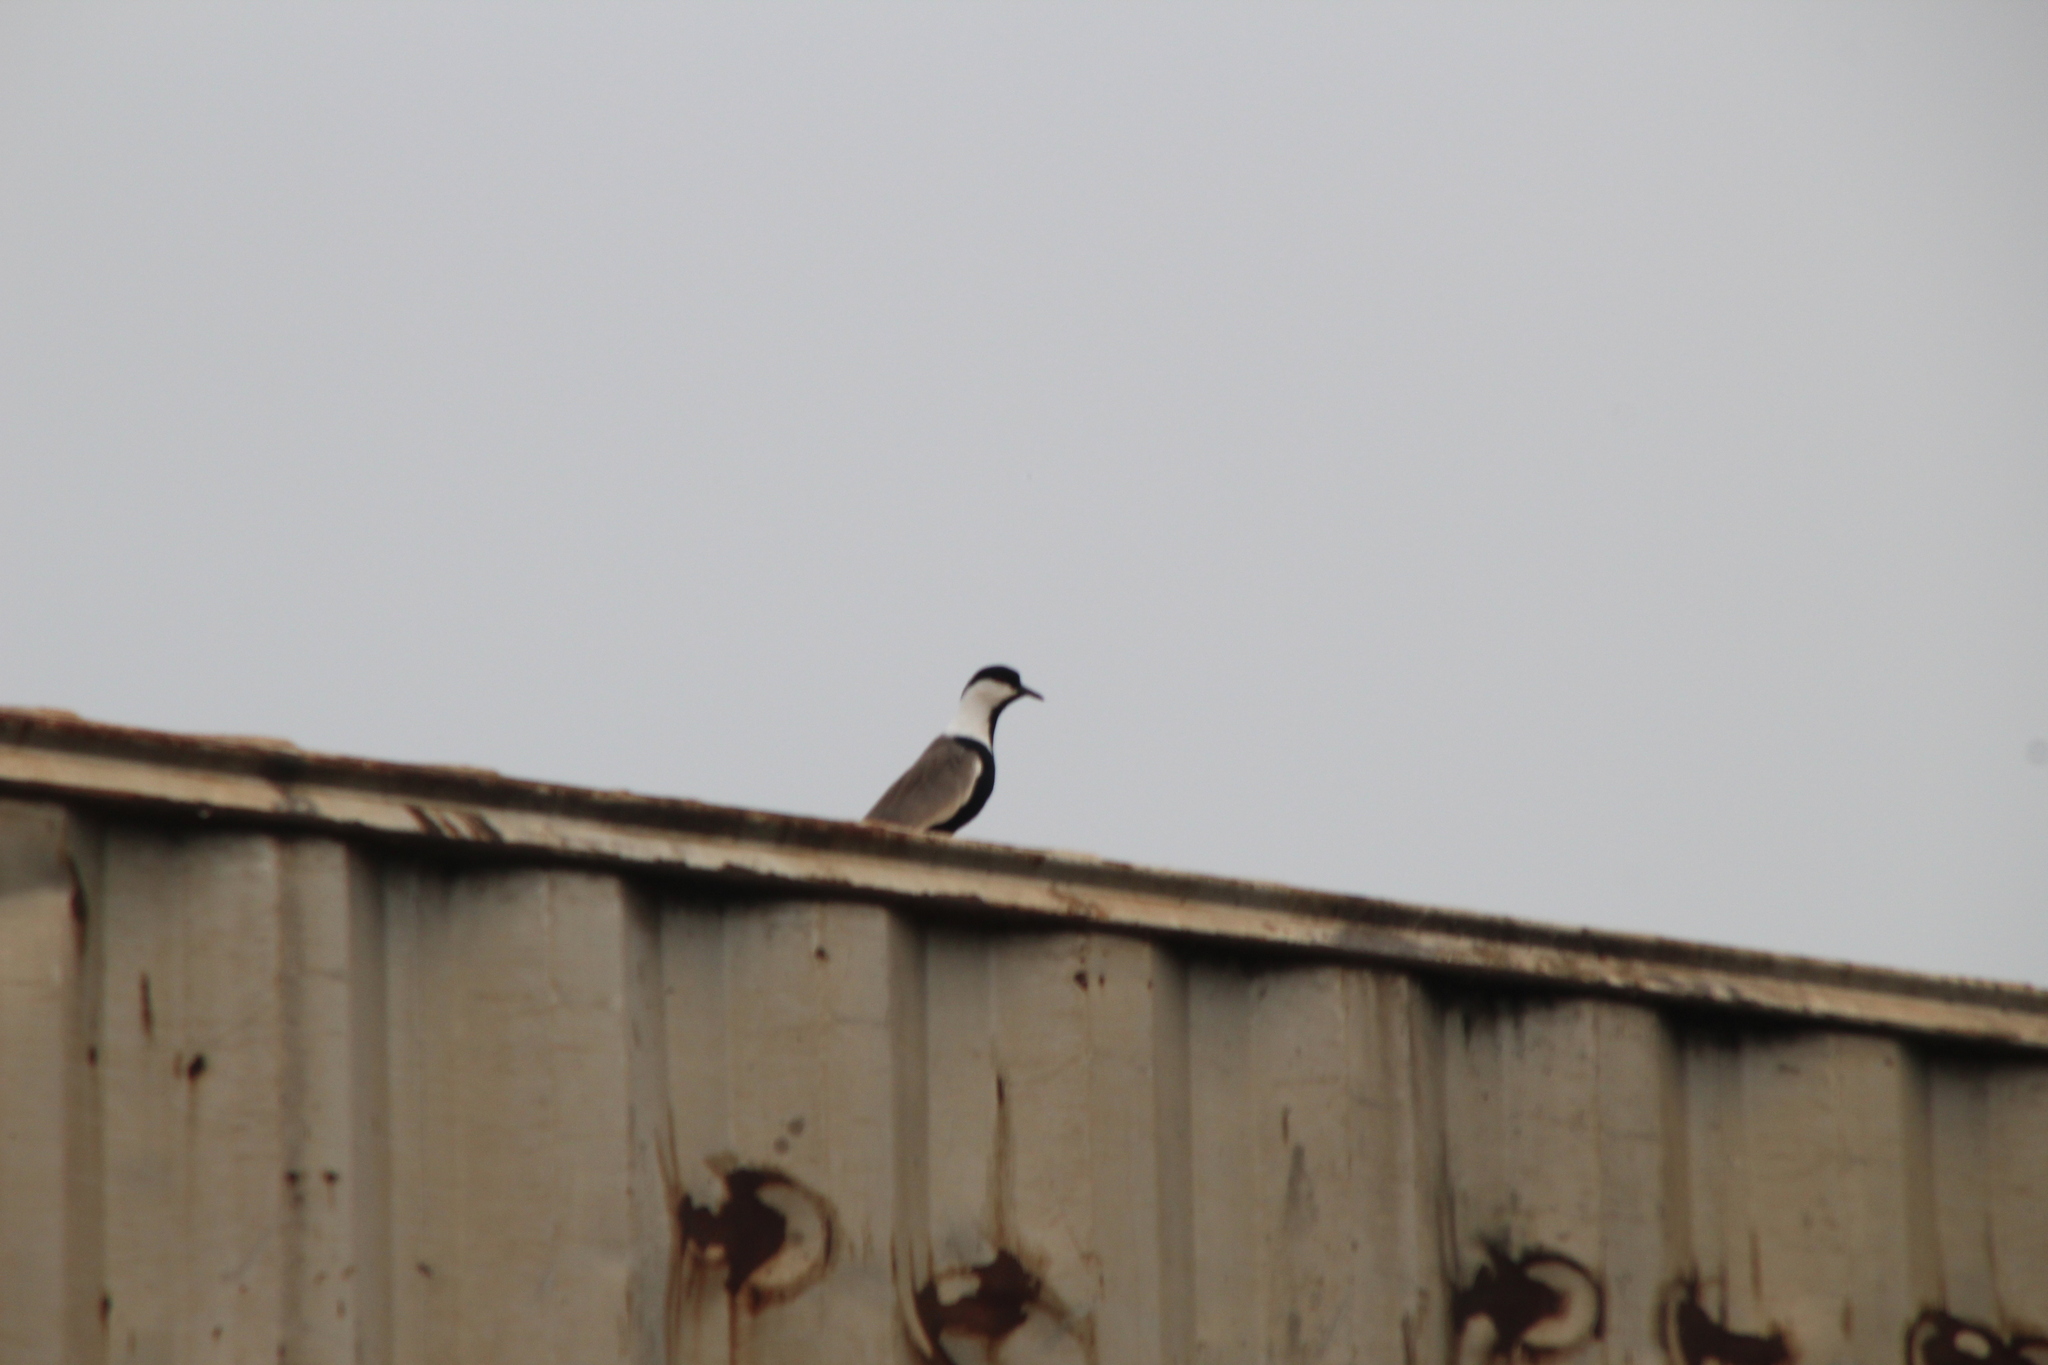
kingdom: Animalia
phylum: Chordata
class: Aves
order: Charadriiformes
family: Charadriidae
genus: Vanellus
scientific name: Vanellus spinosus
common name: Spur-winged lapwing
